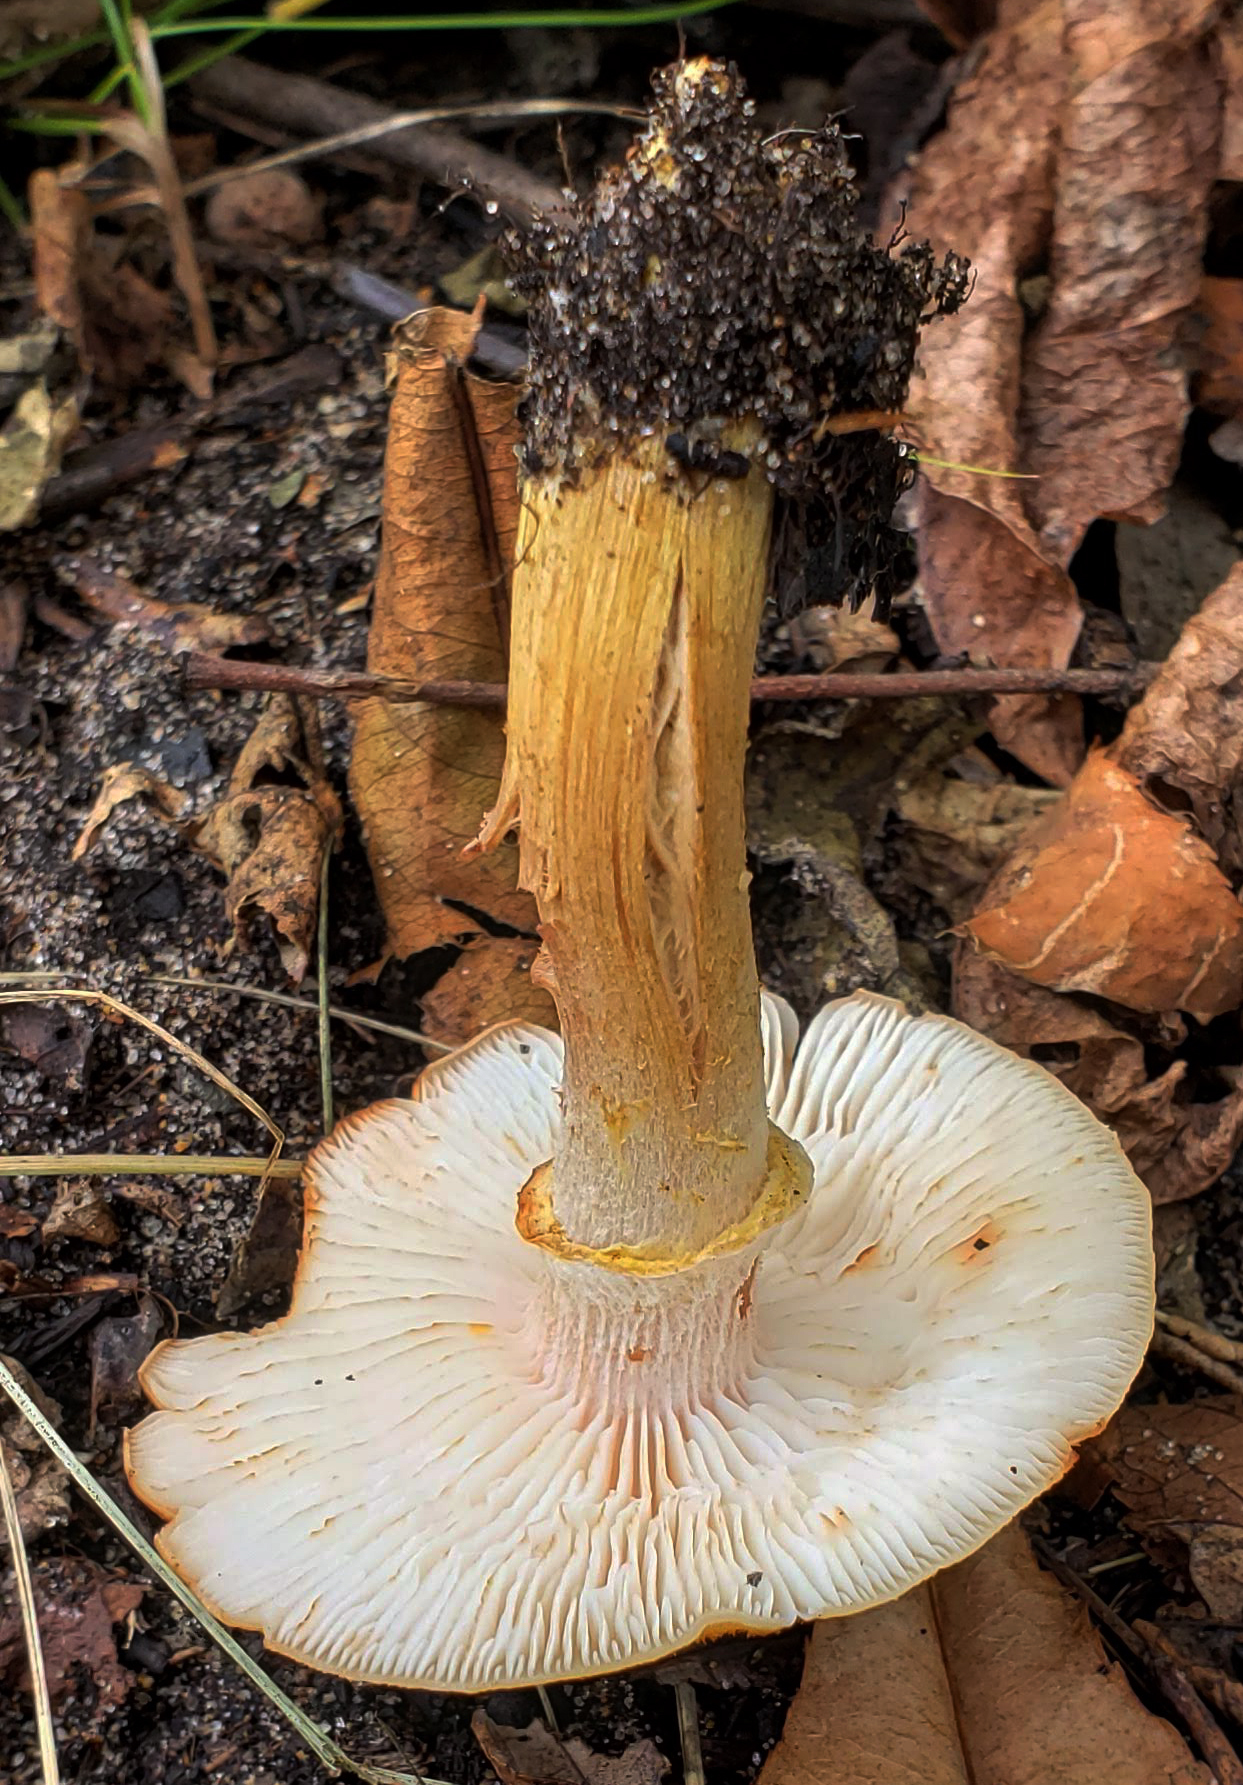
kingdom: Fungi
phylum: Basidiomycota
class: Agaricomycetes
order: Agaricales
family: Cortinariaceae
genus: Cortinarius
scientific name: Cortinarius caperatus
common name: The gypsy
